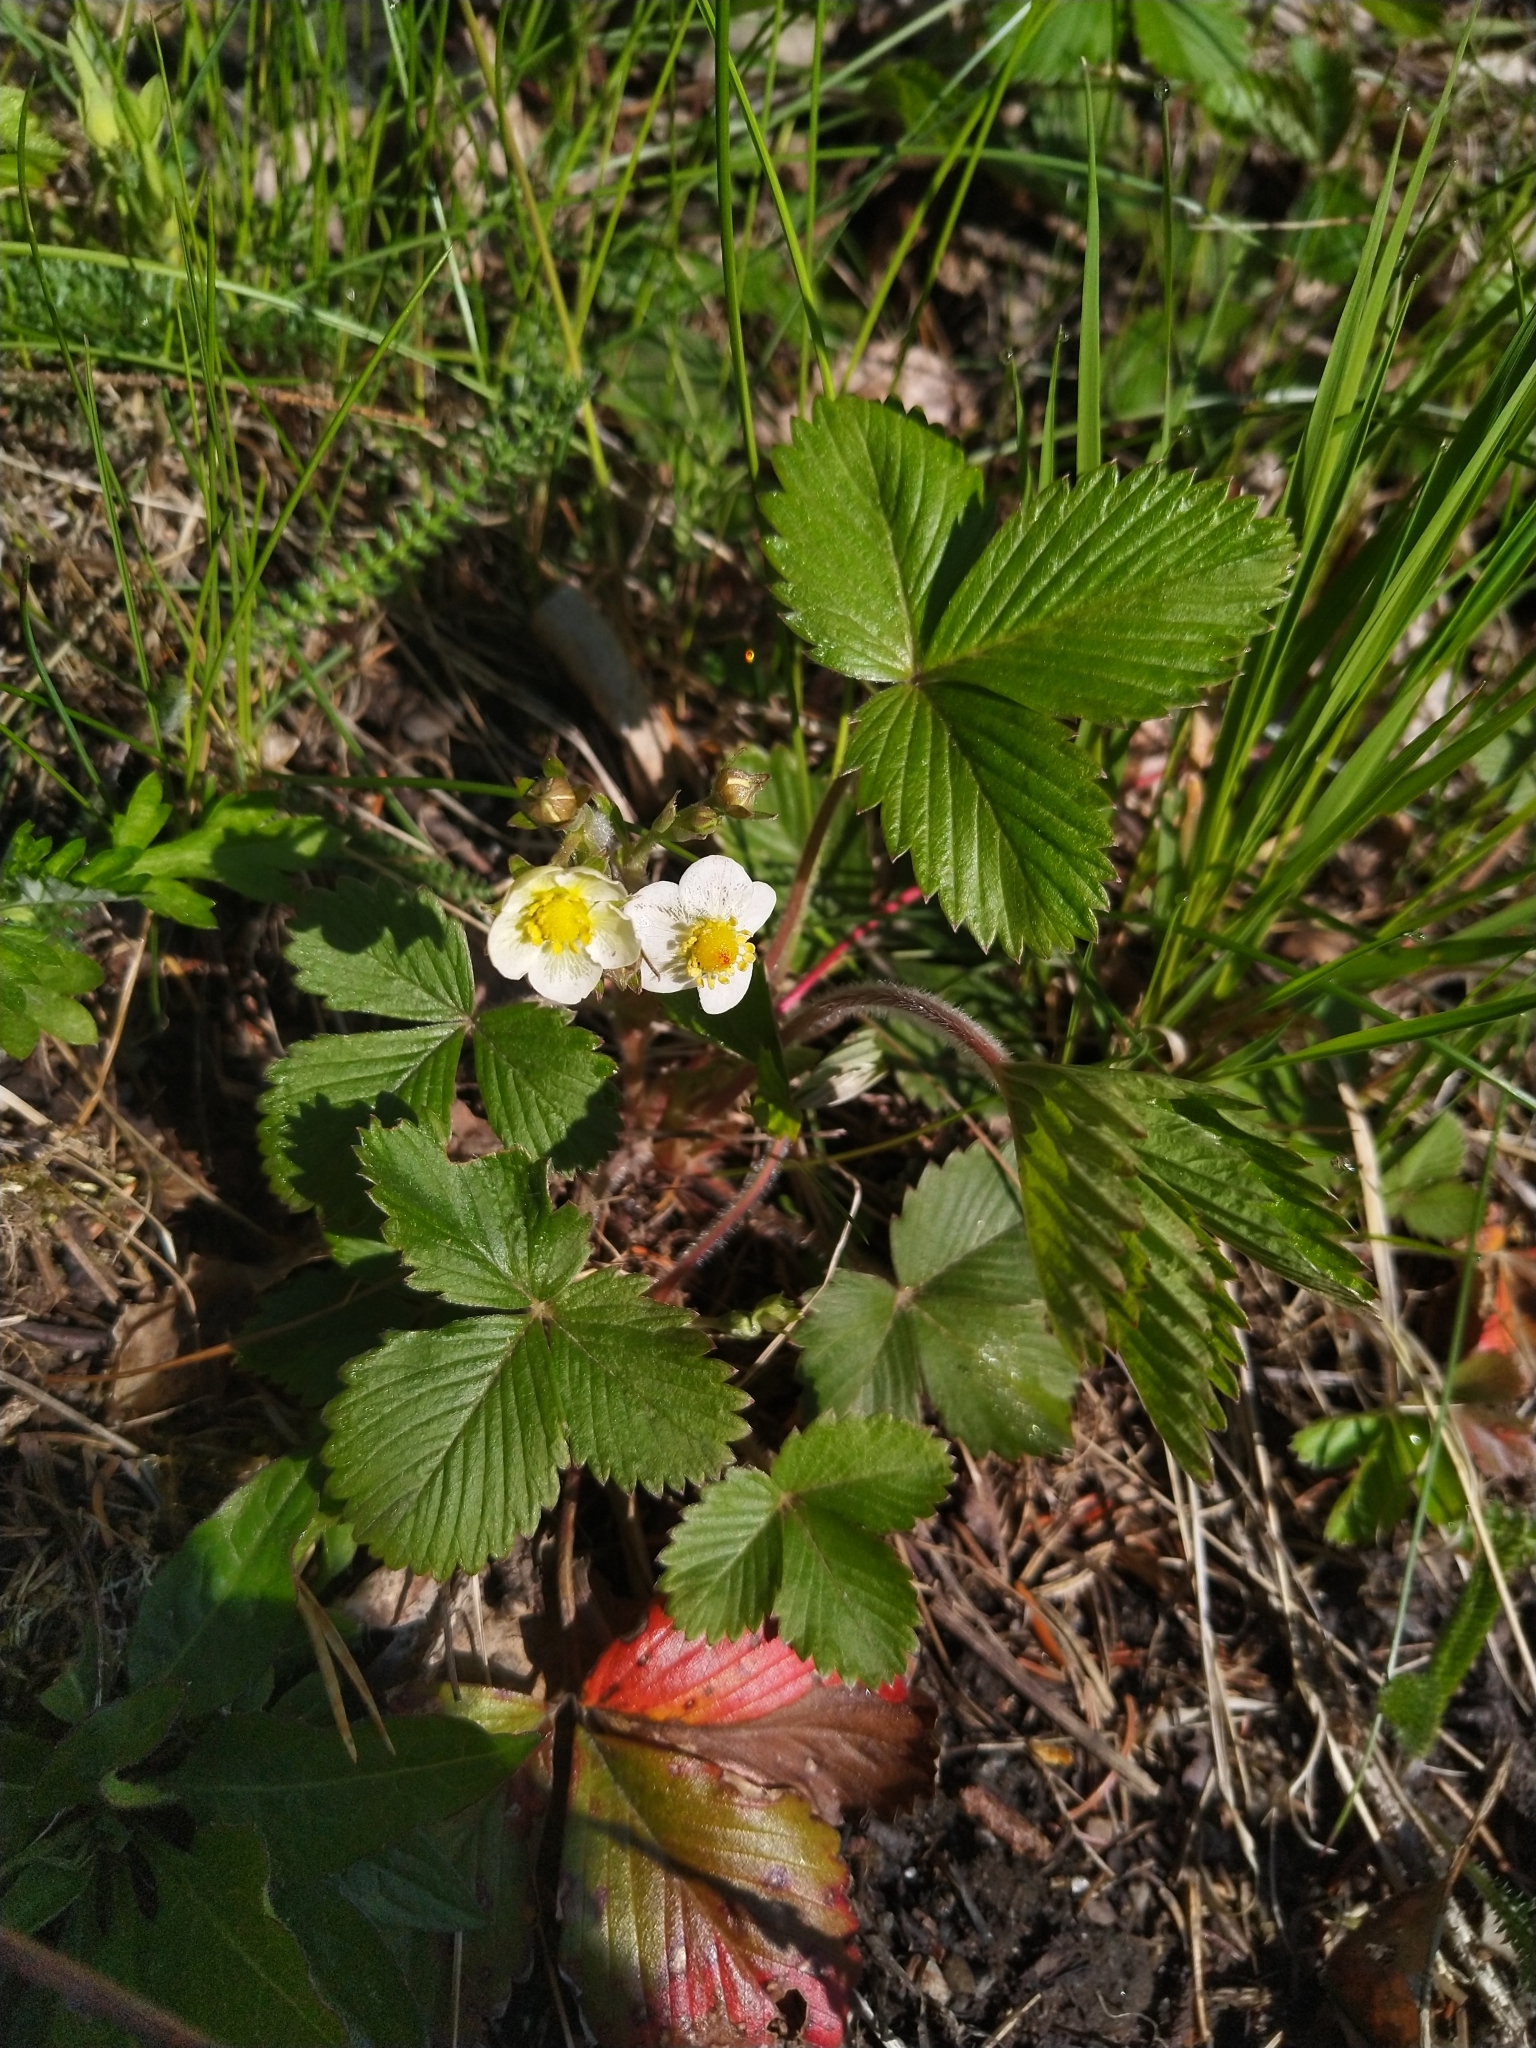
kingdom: Plantae
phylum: Tracheophyta
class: Magnoliopsida
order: Rosales
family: Rosaceae
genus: Fragaria
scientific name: Fragaria vesca
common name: Wild strawberry
